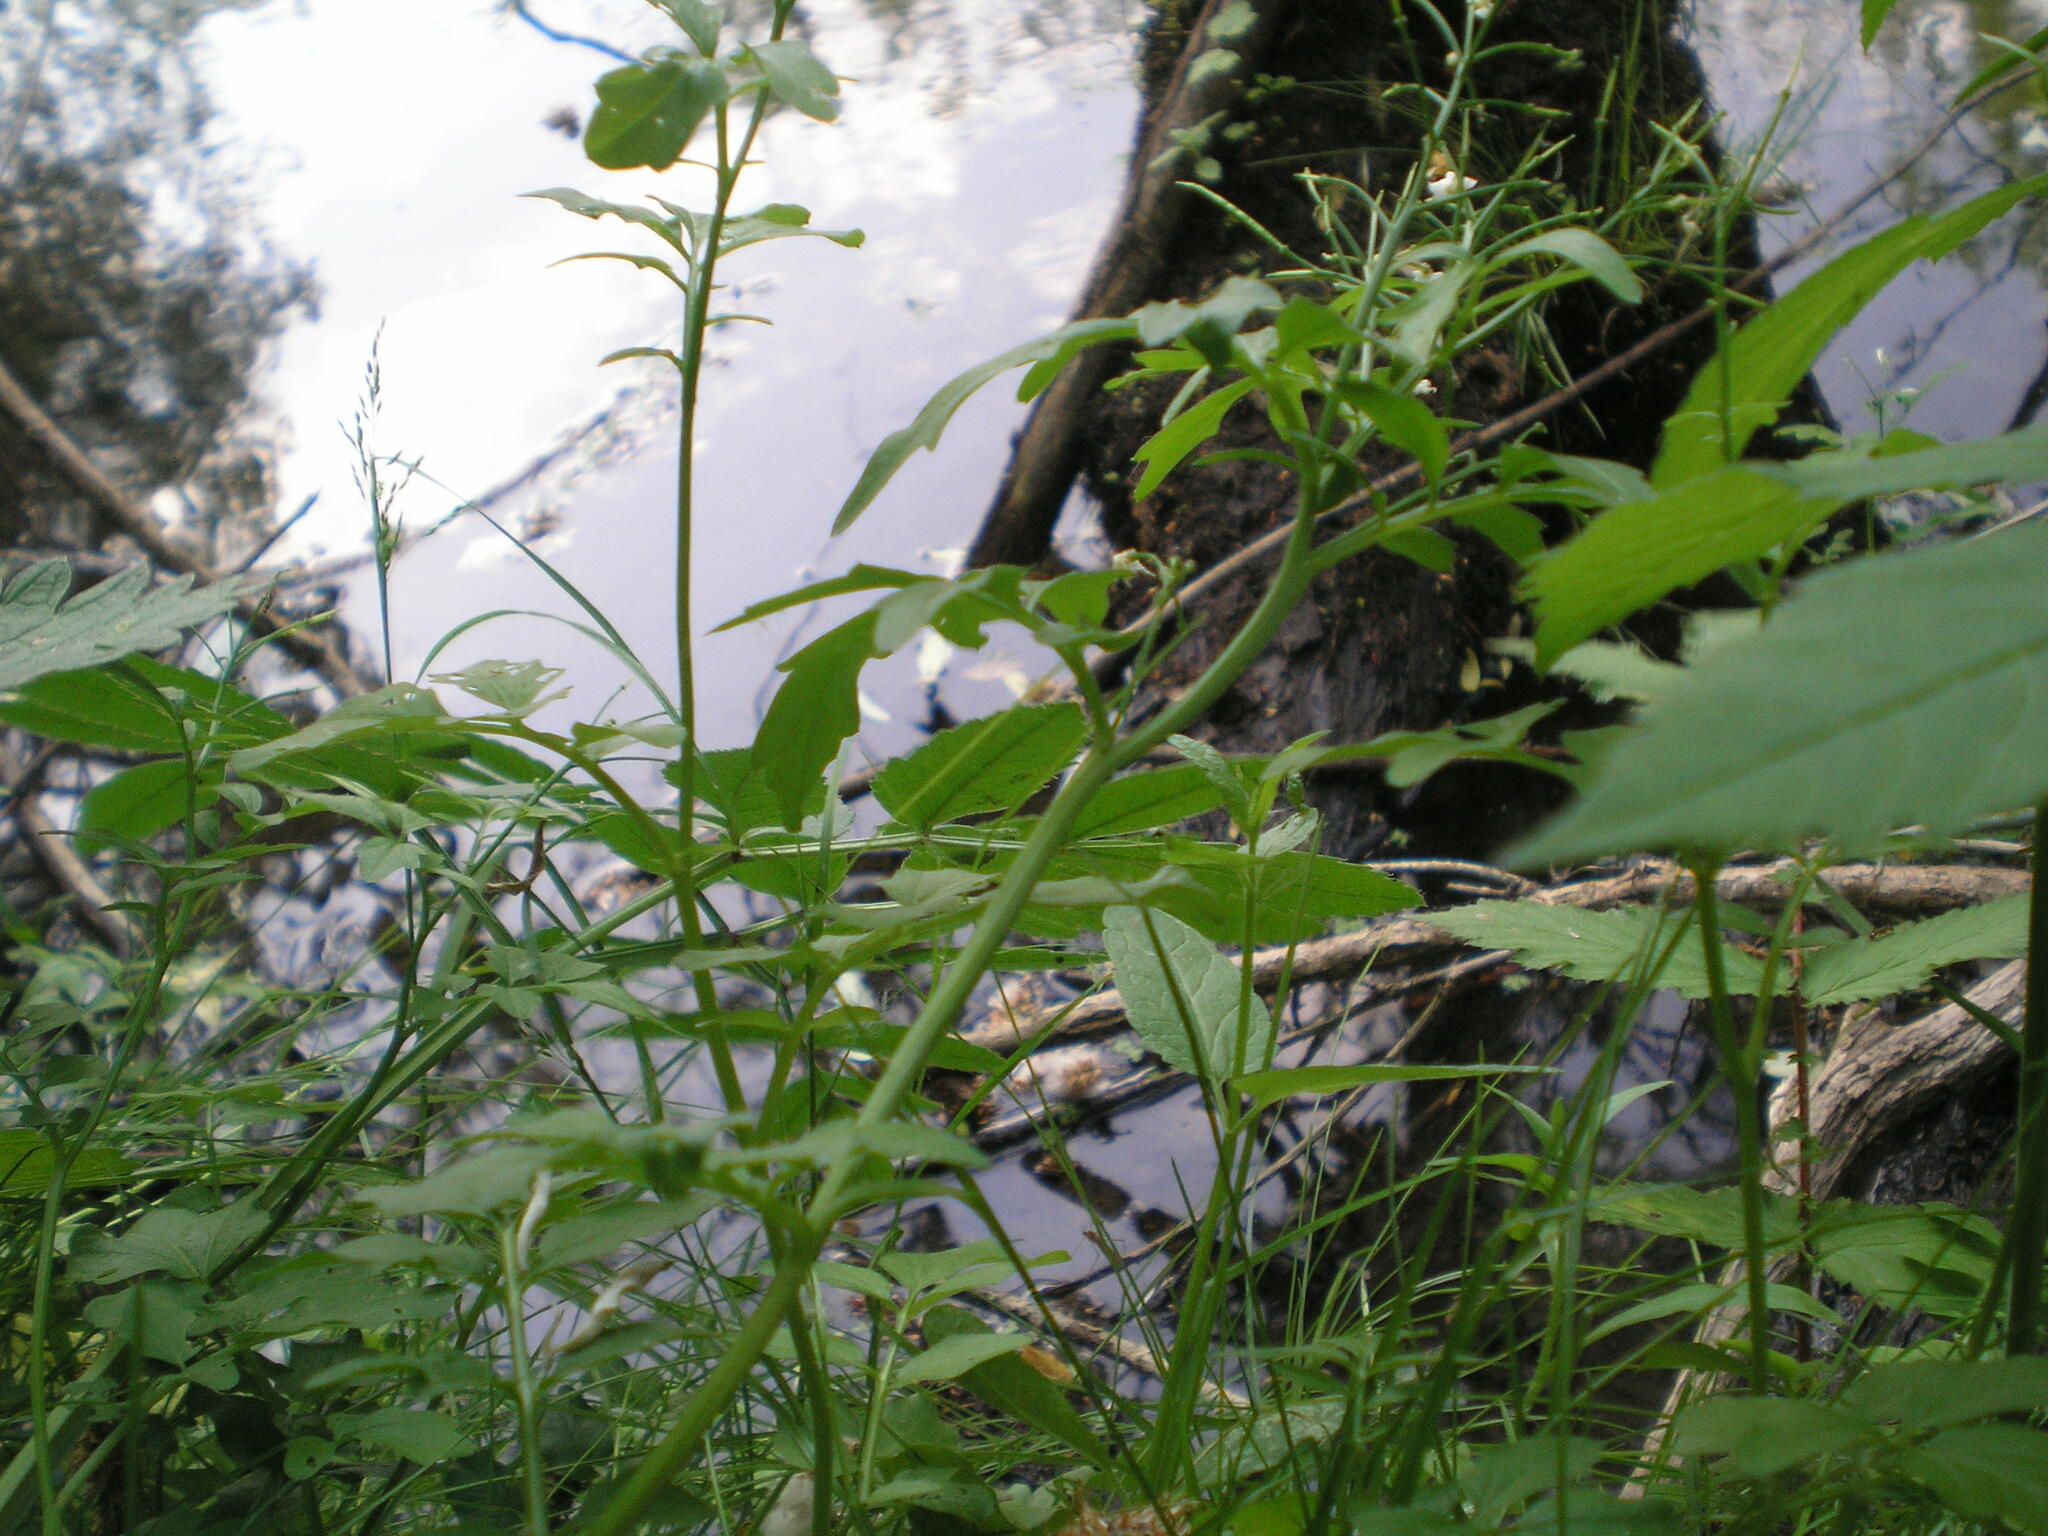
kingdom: Plantae
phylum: Tracheophyta
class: Magnoliopsida
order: Brassicales
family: Brassicaceae
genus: Cardamine
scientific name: Cardamine amara
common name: Large bitter-cress
